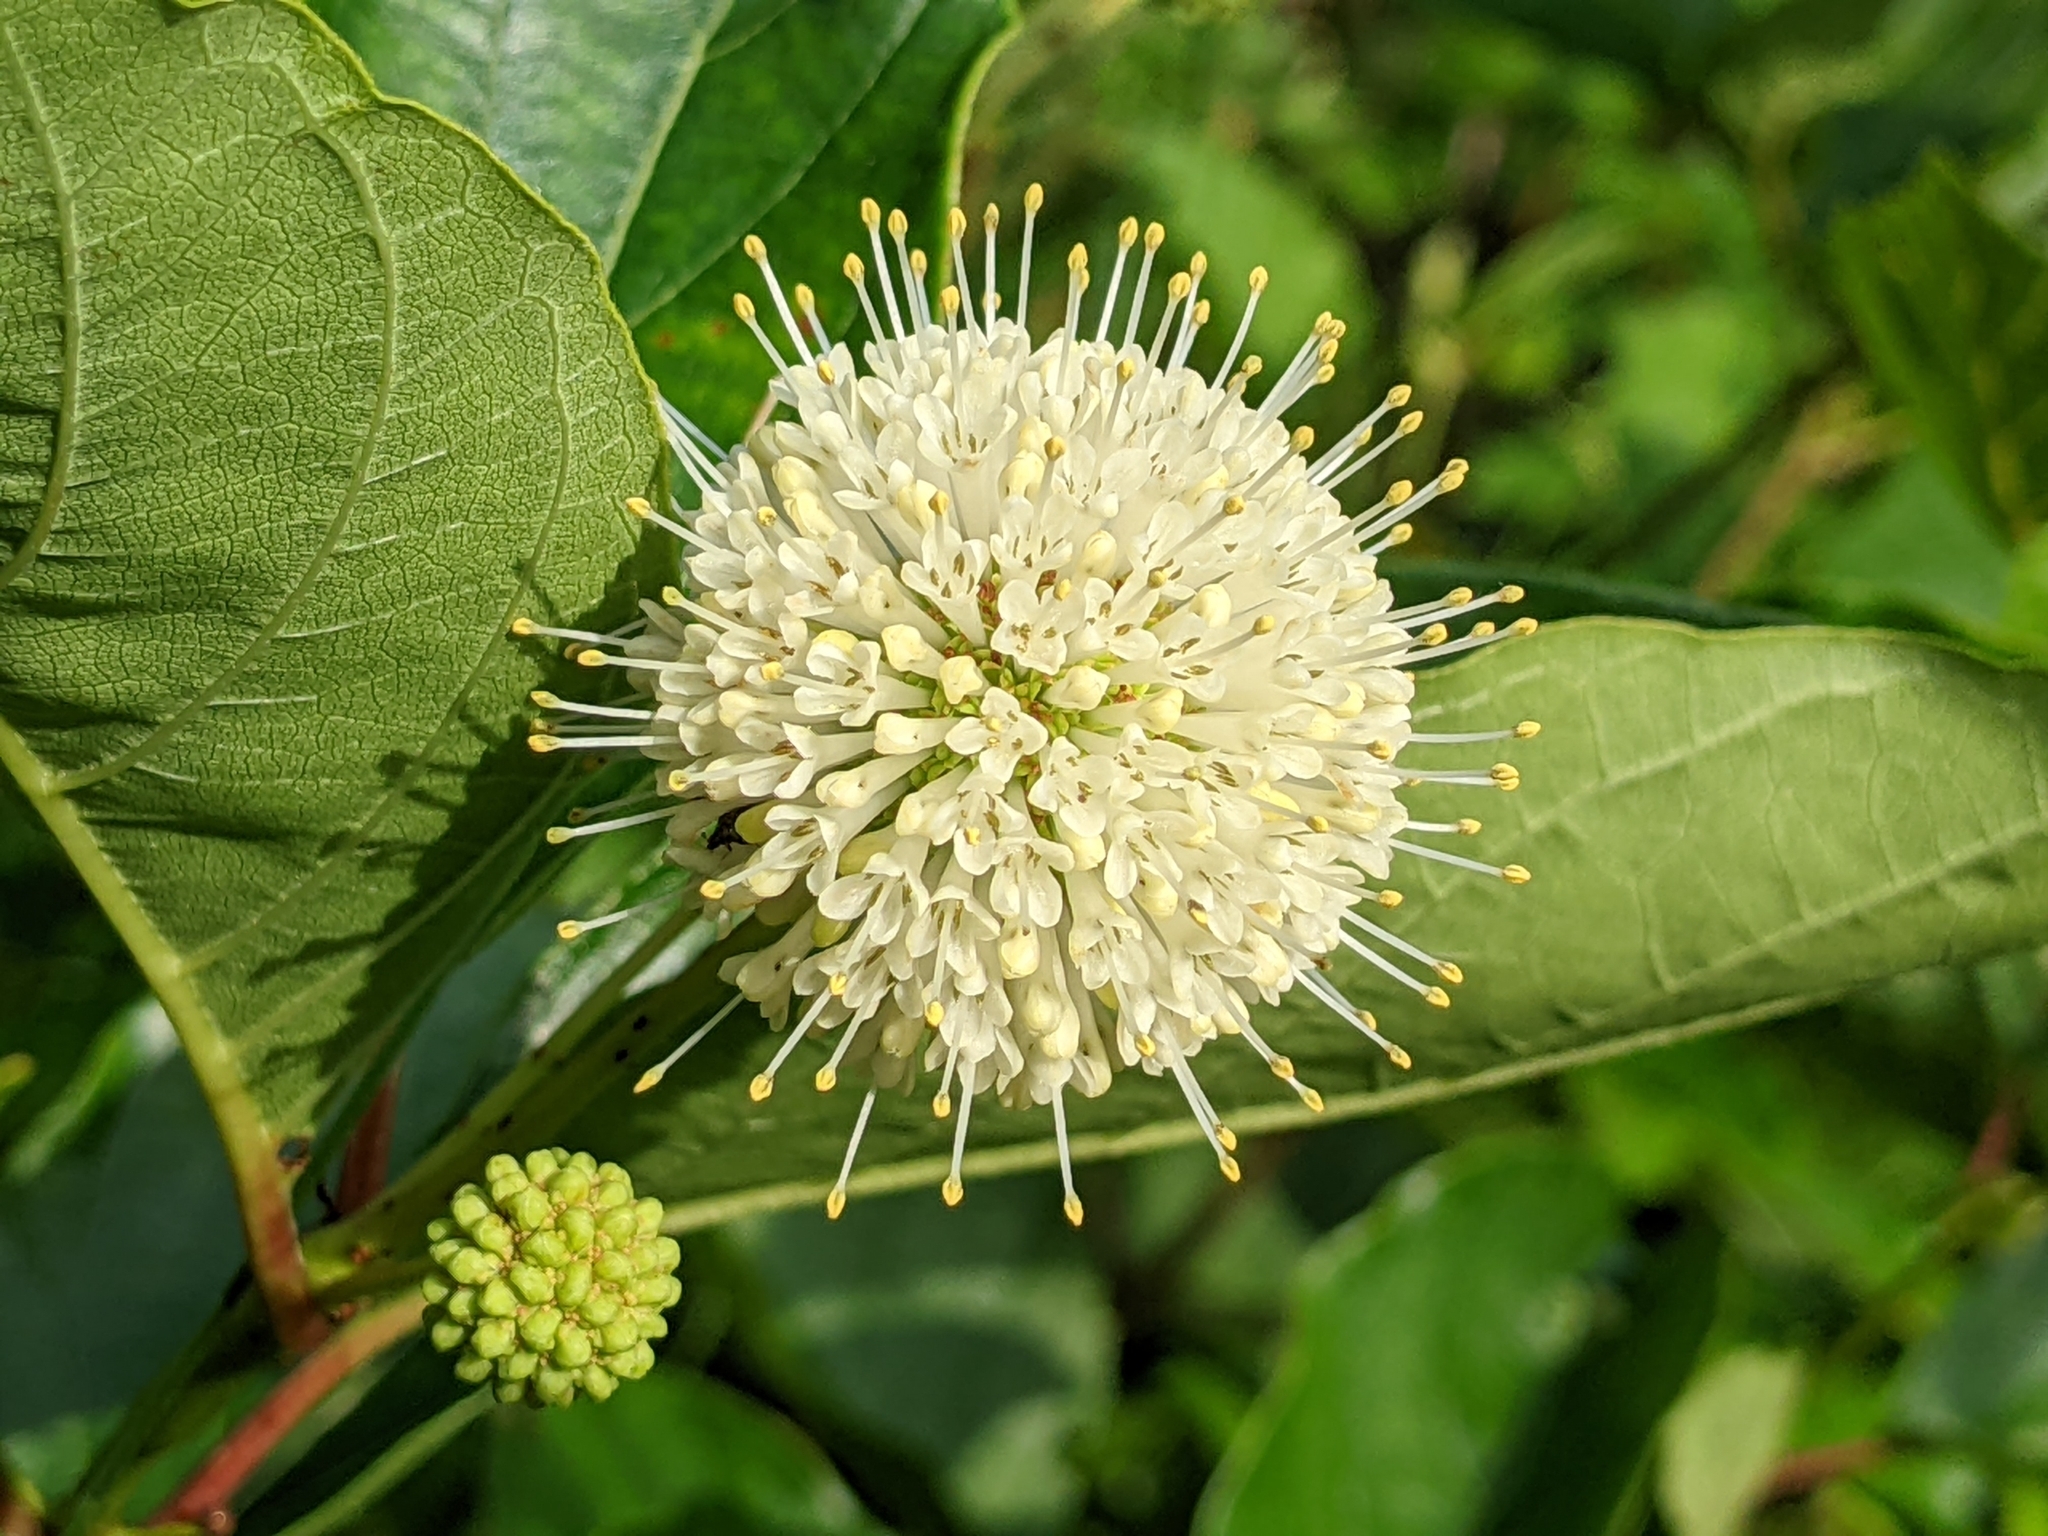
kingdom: Plantae
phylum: Tracheophyta
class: Magnoliopsida
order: Gentianales
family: Rubiaceae
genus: Cephalanthus
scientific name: Cephalanthus occidentalis
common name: Button-willow
